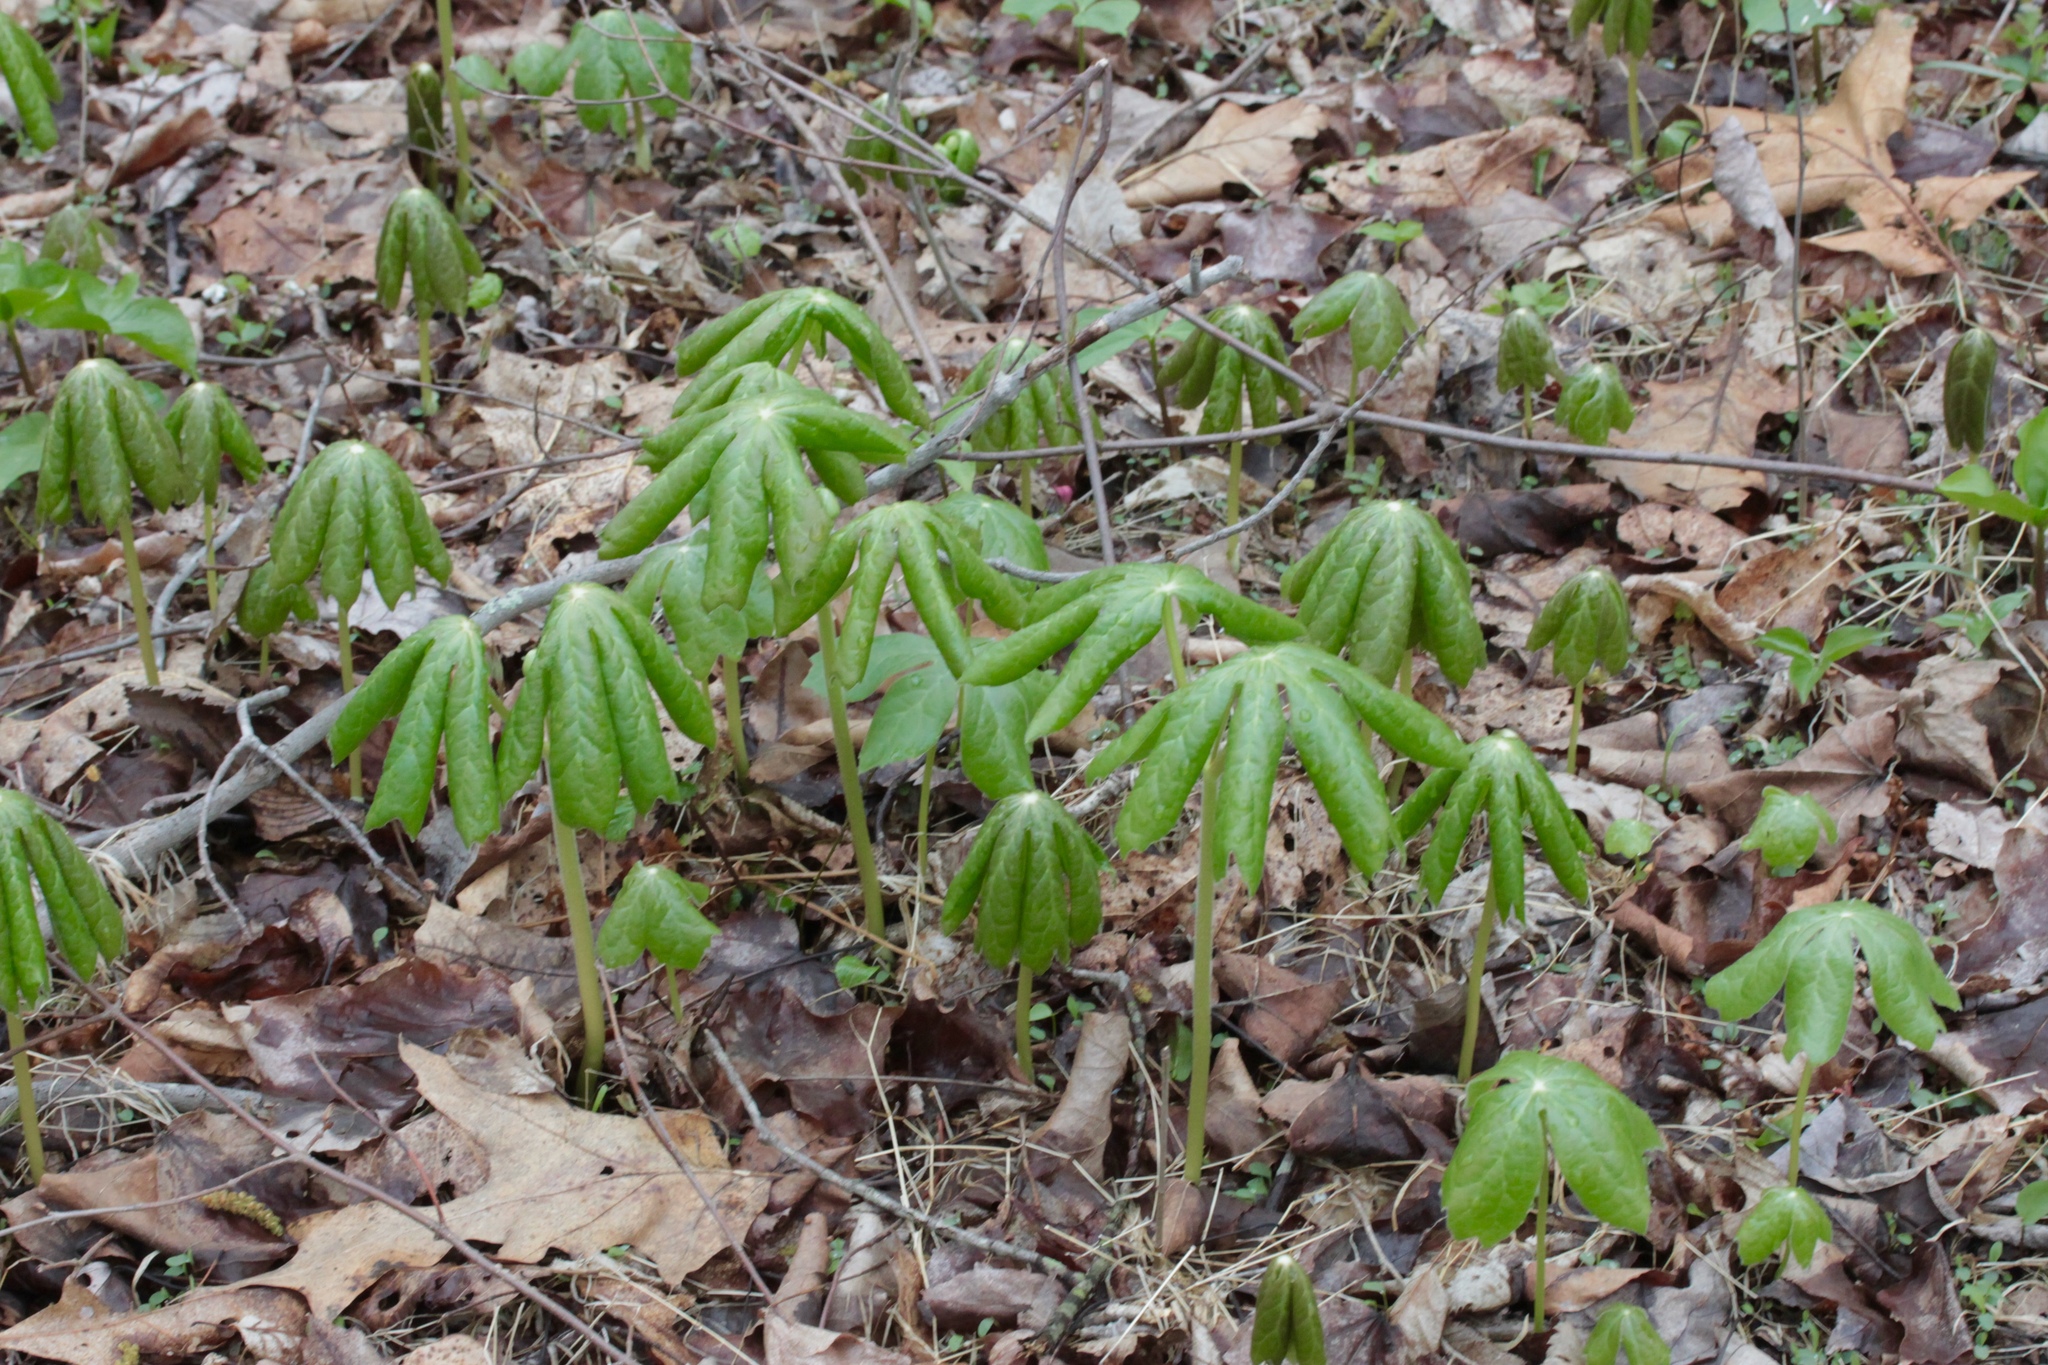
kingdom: Plantae
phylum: Tracheophyta
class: Magnoliopsida
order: Ranunculales
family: Berberidaceae
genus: Podophyllum
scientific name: Podophyllum peltatum
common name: Wild mandrake
